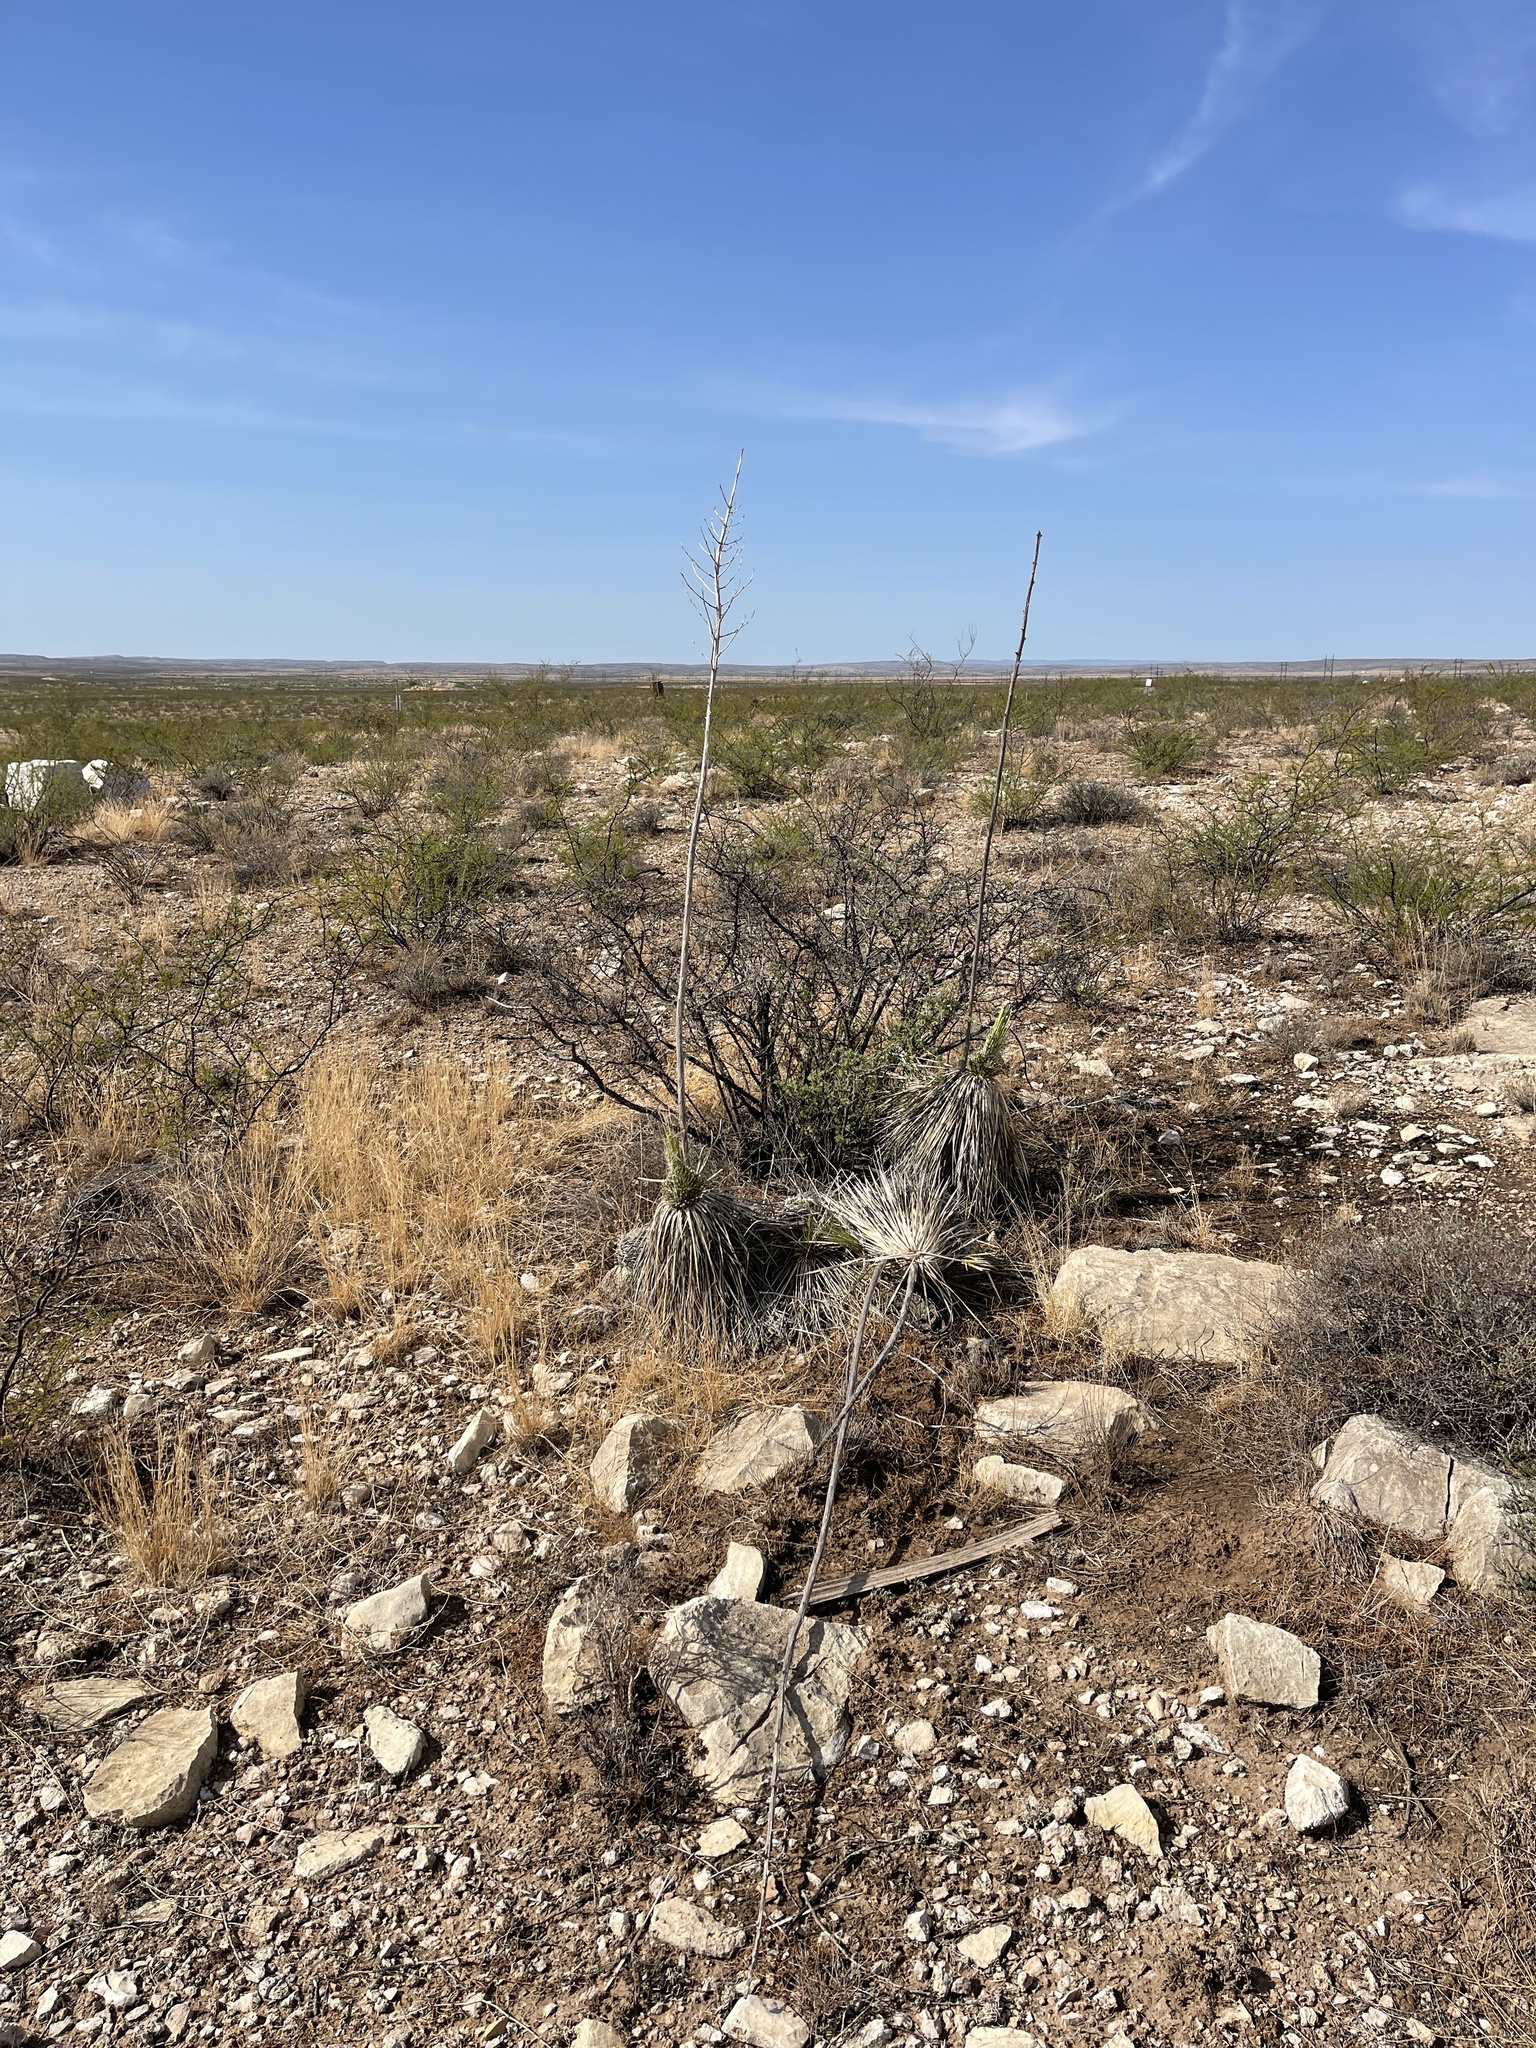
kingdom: Plantae
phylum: Tracheophyta
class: Liliopsida
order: Asparagales
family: Asparagaceae
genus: Yucca
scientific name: Yucca elata
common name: Palmella
